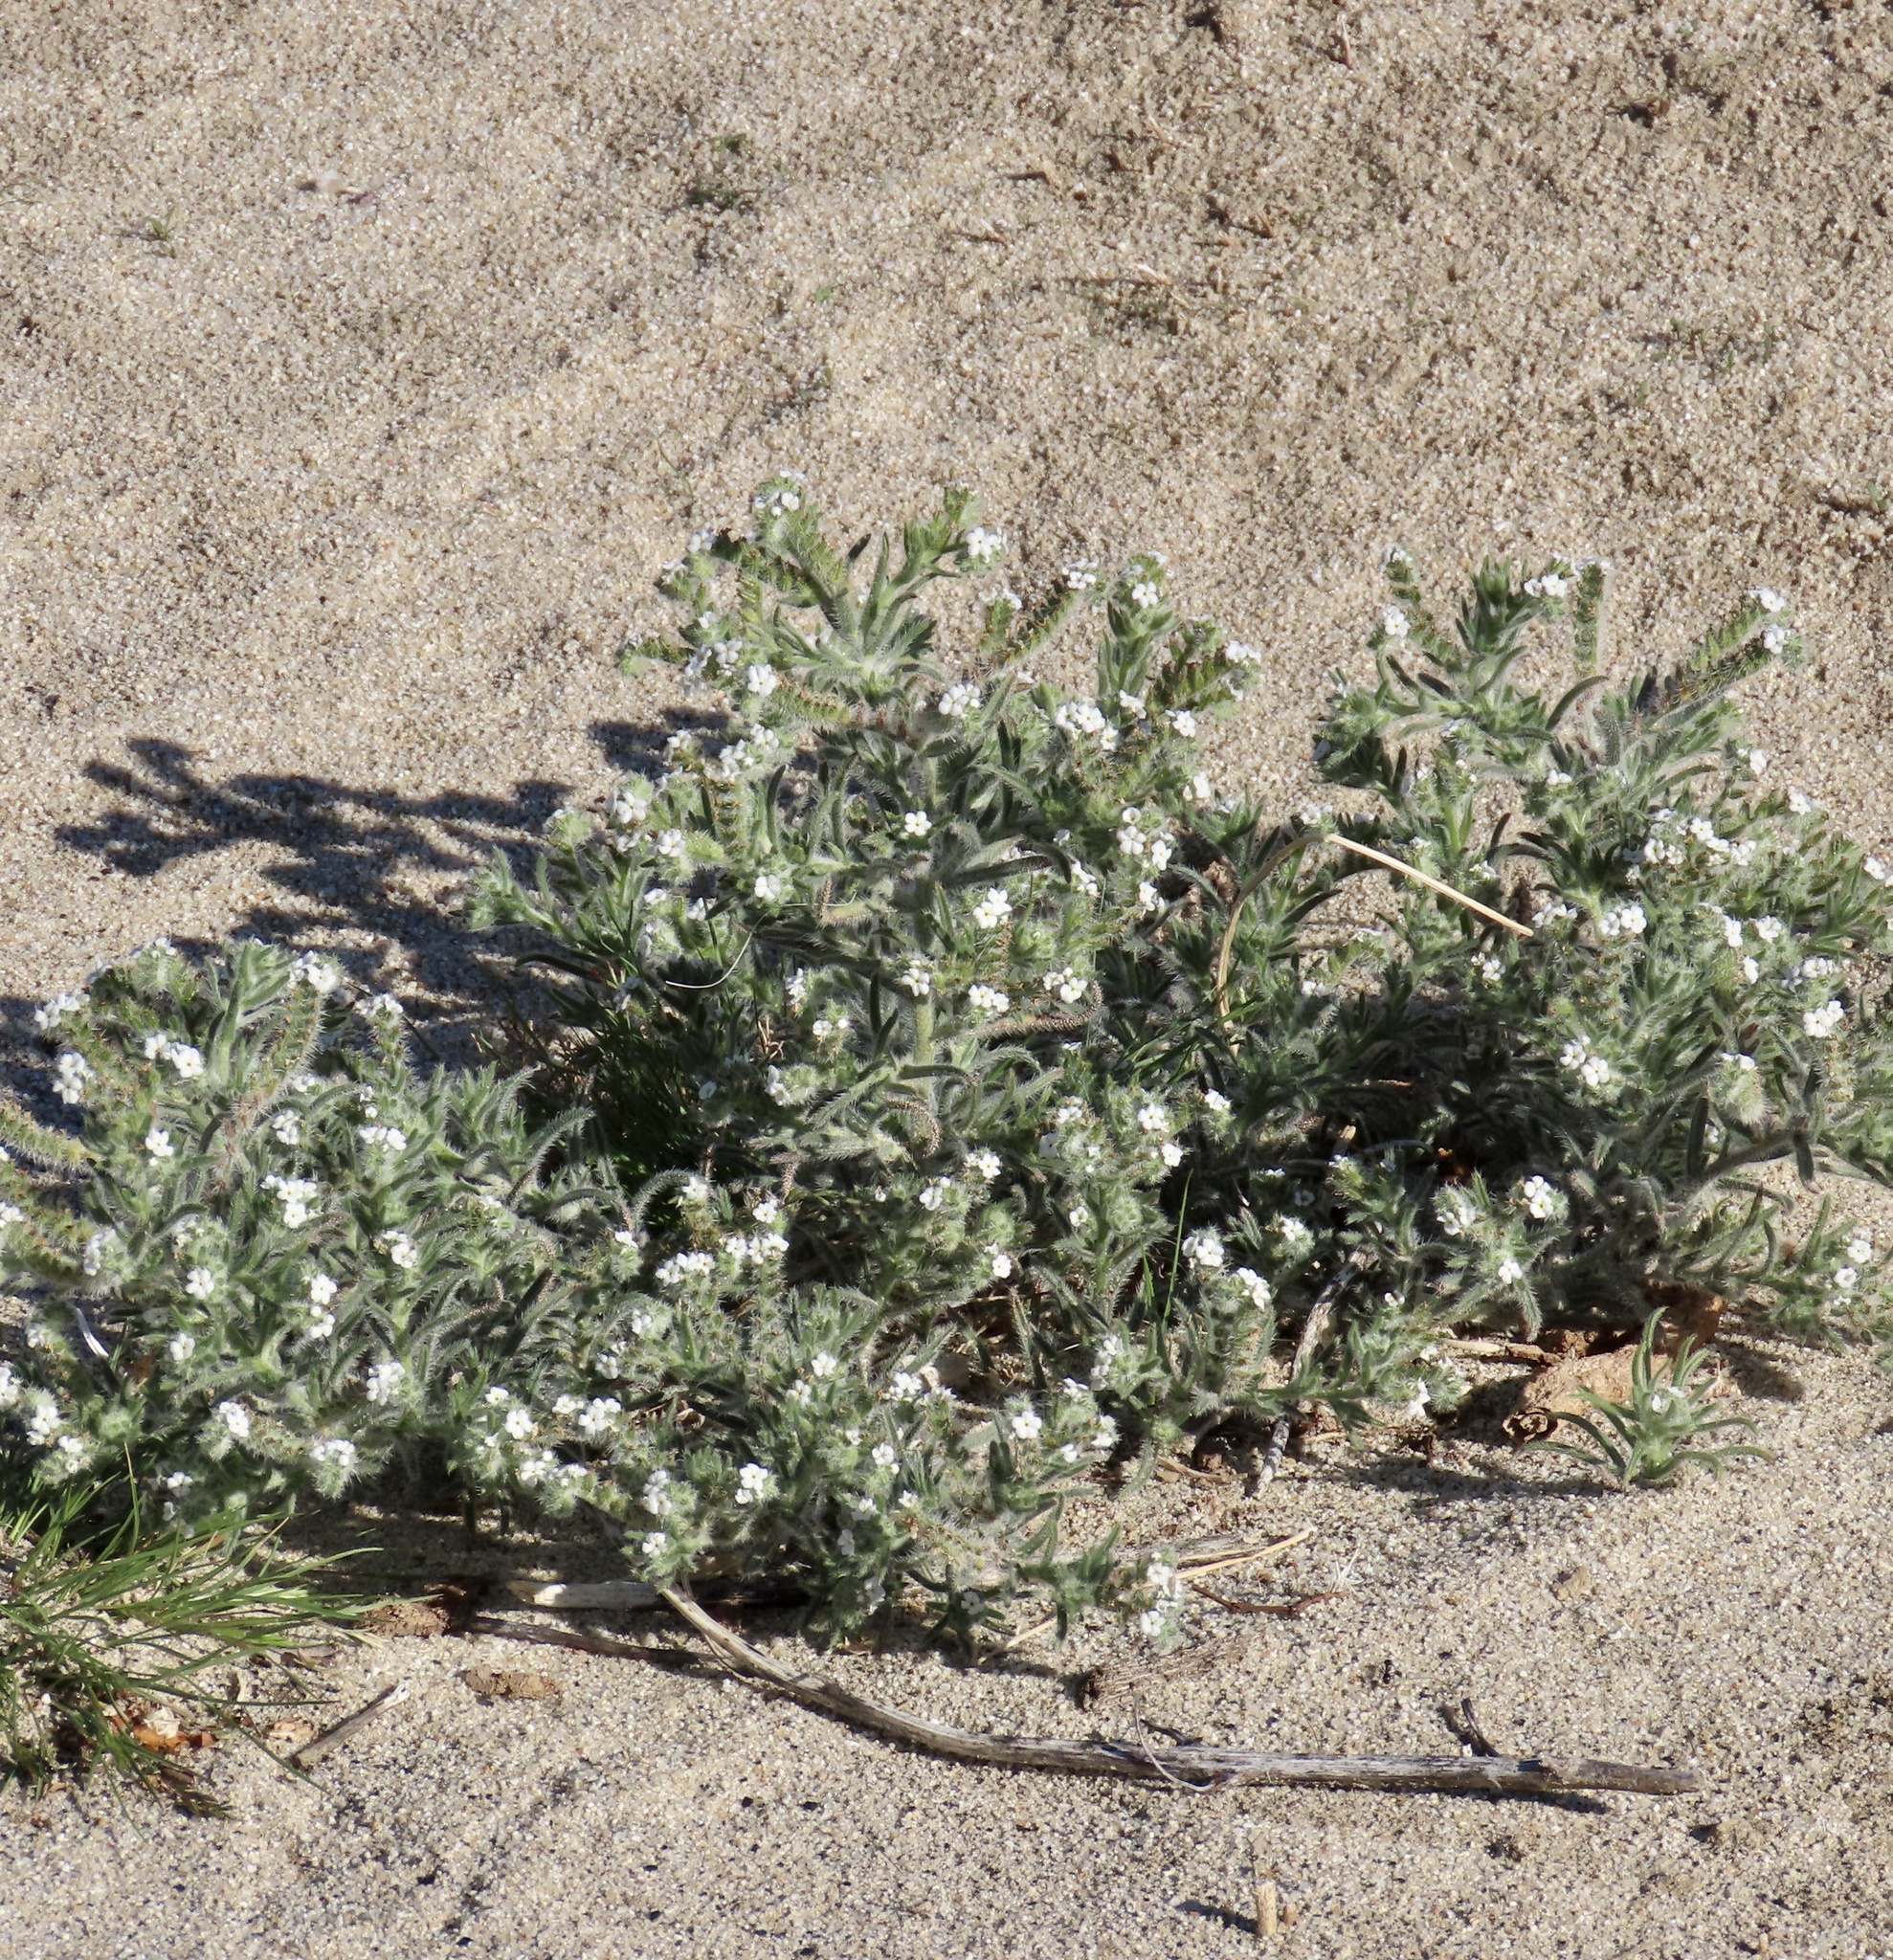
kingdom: Plantae
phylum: Tracheophyta
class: Magnoliopsida
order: Boraginales
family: Boraginaceae
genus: Johnstonella
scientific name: Johnstonella angustifolia
